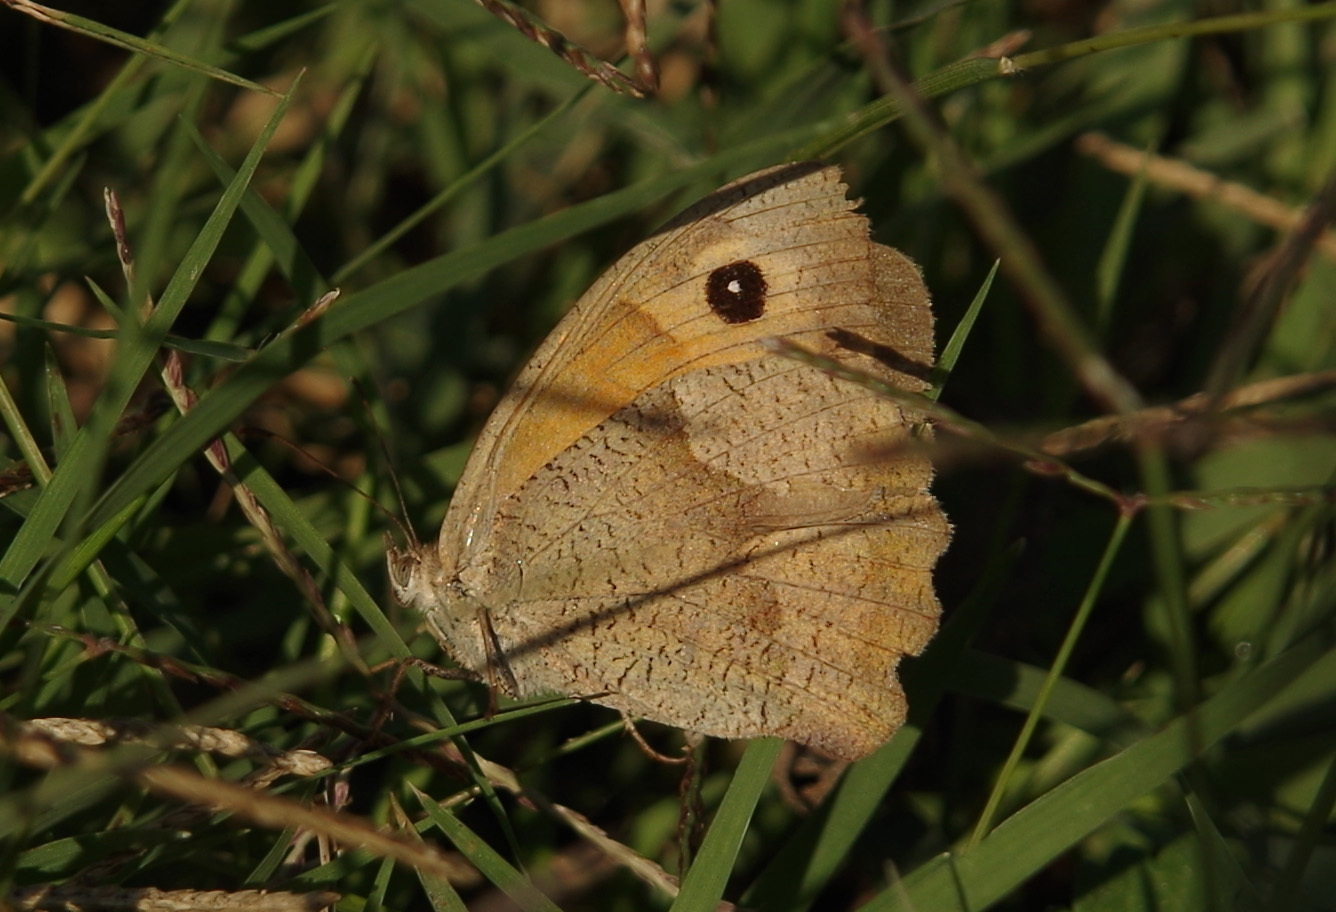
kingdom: Animalia
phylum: Arthropoda
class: Insecta
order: Lepidoptera
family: Nymphalidae
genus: Maniola
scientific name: Maniola jurtina
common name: Meadow brown
